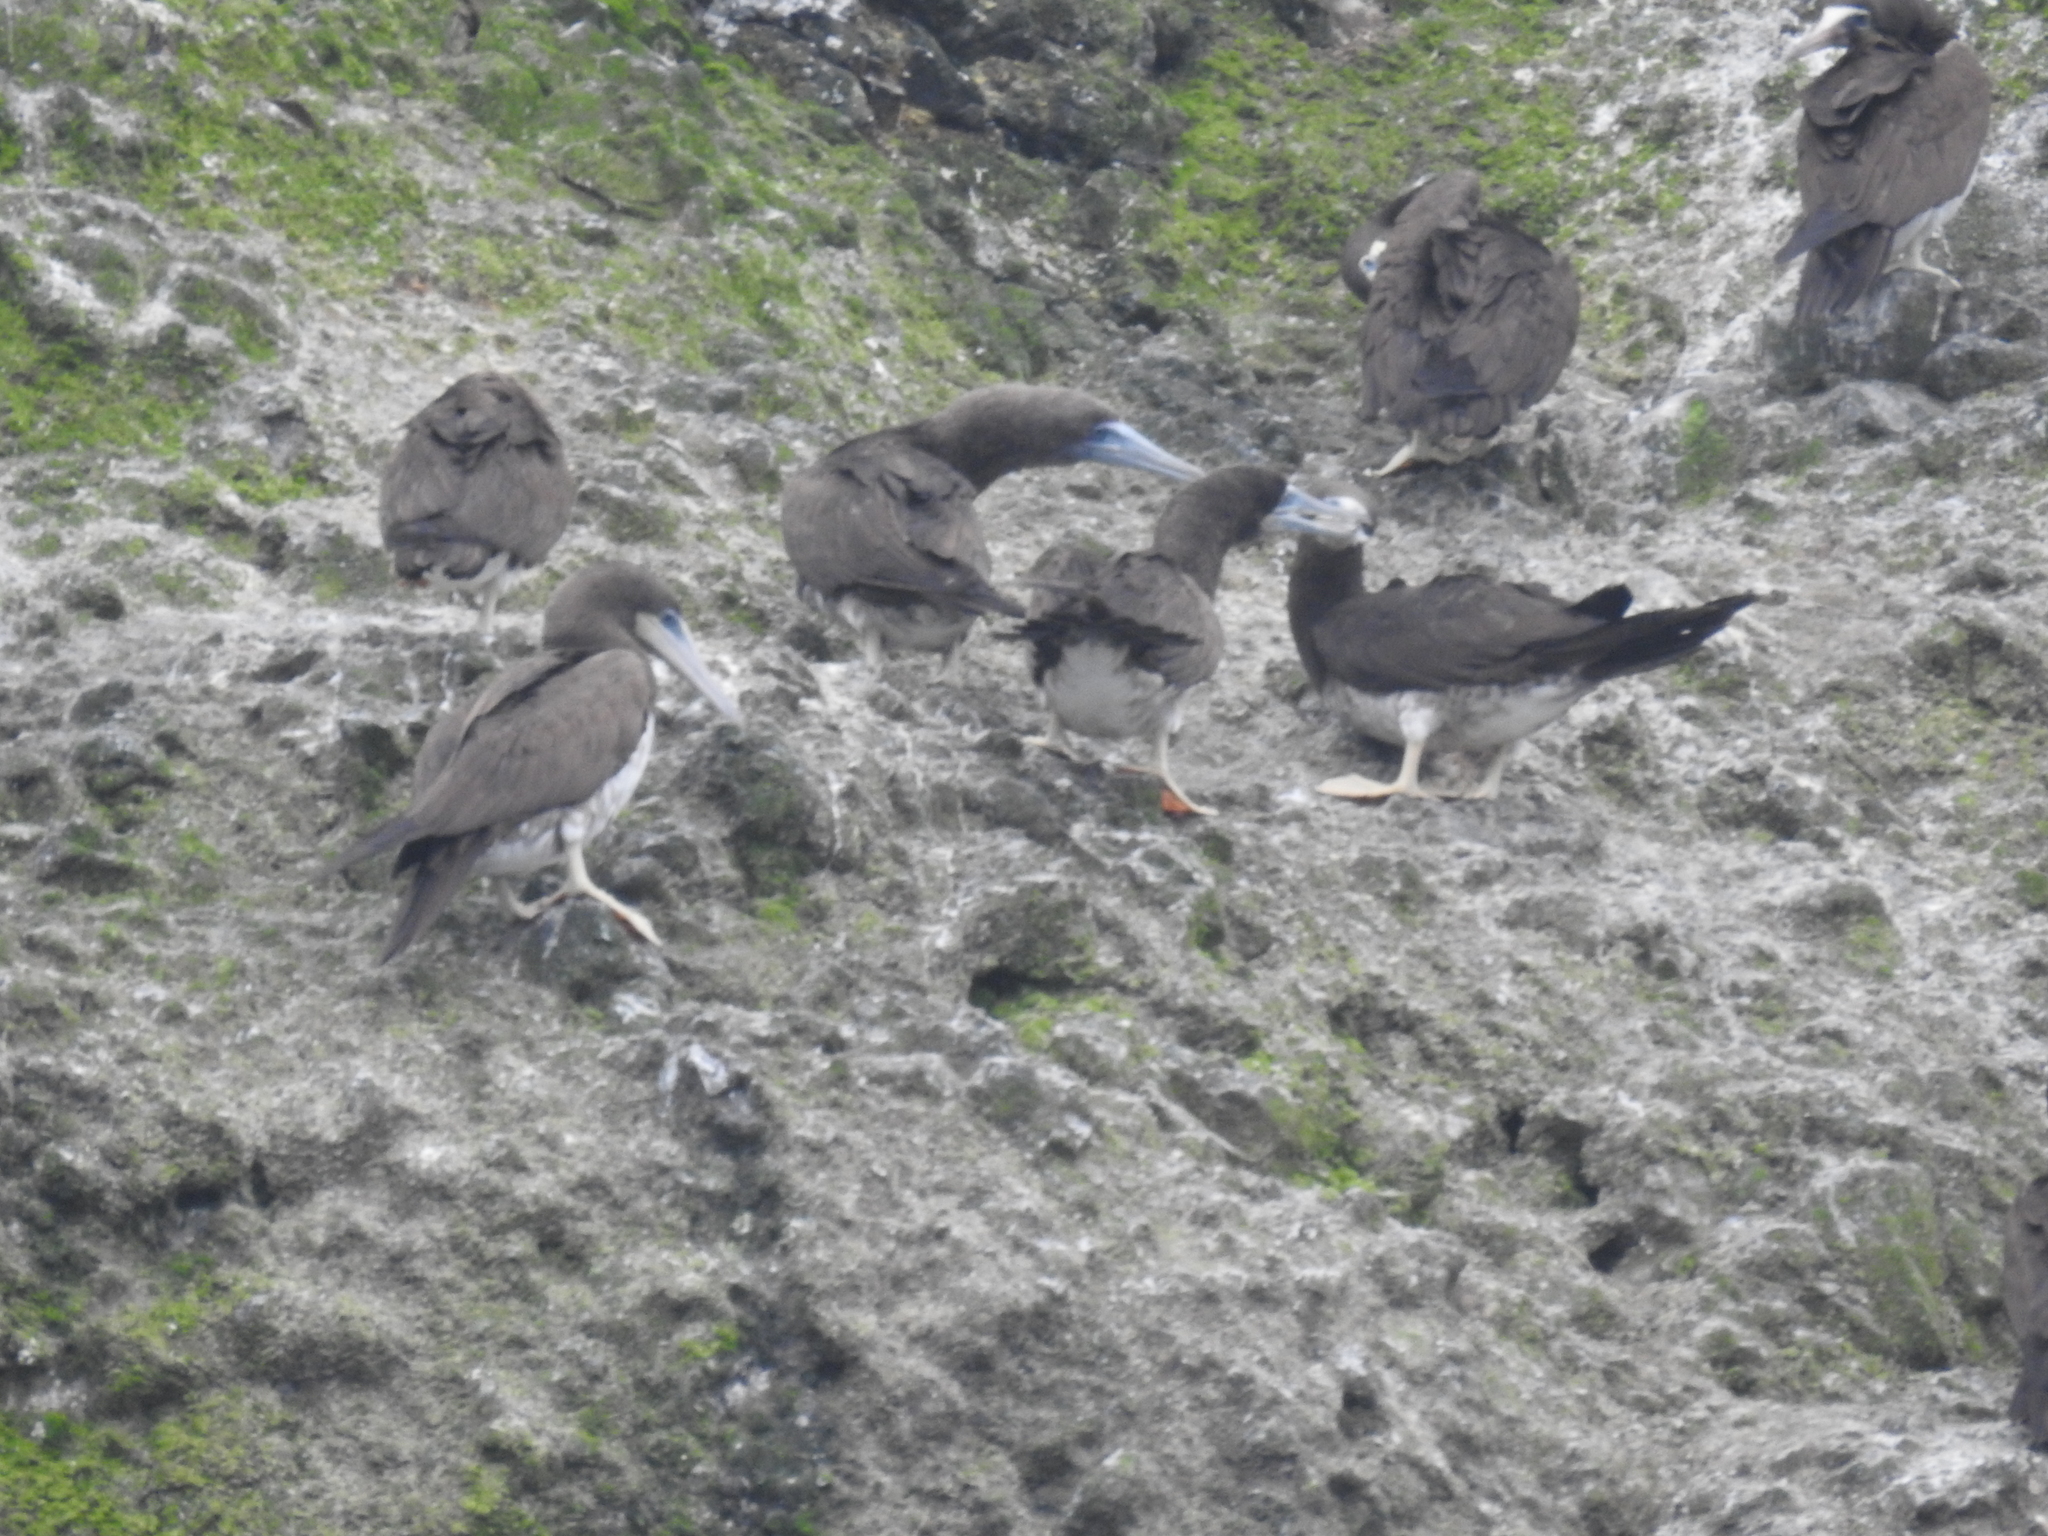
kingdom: Animalia
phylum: Chordata
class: Aves
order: Suliformes
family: Sulidae
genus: Sula
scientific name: Sula leucogaster
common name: Brown booby
